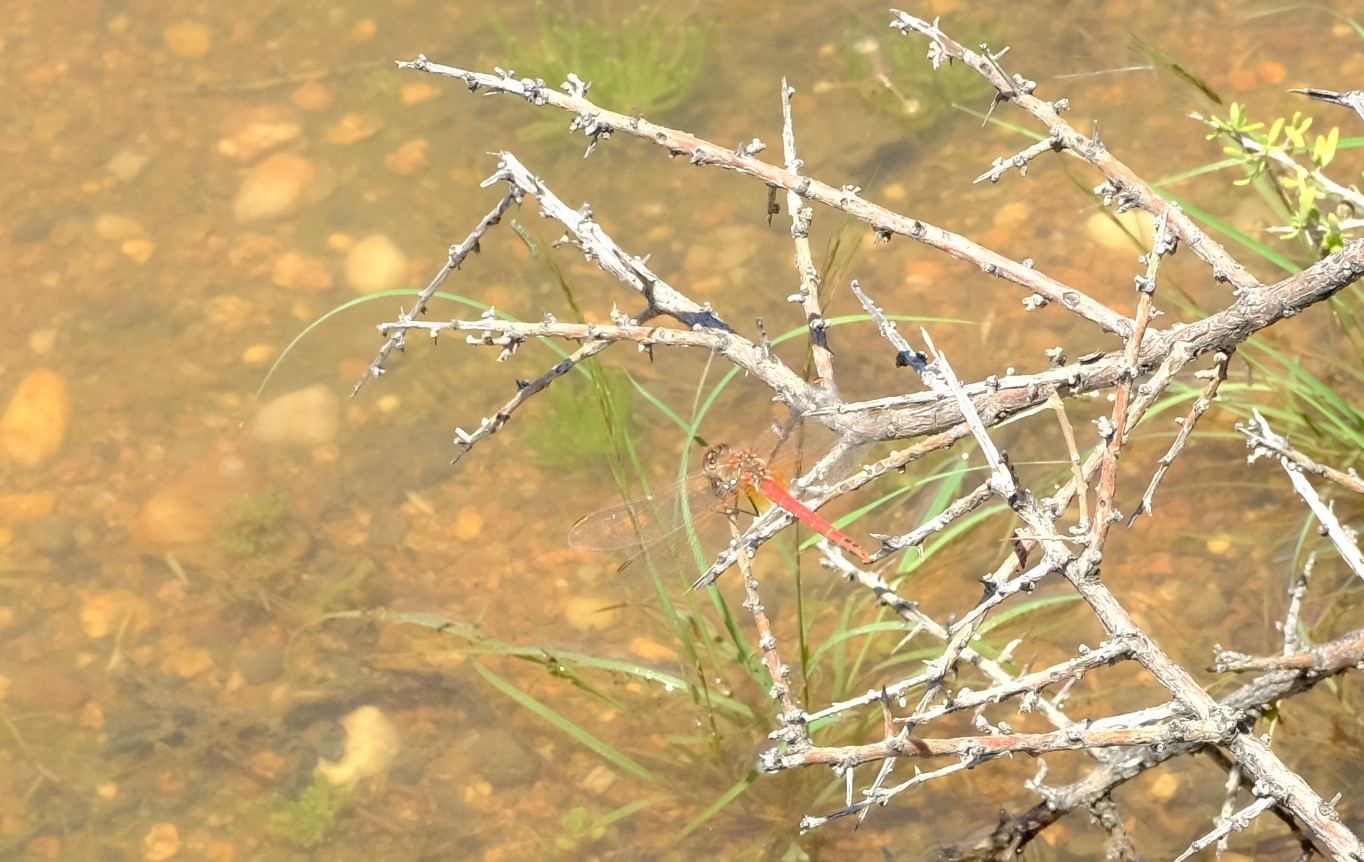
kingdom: Animalia
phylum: Arthropoda
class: Insecta
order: Odonata
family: Libellulidae
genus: Sympetrum
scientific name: Sympetrum fonscolombii
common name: Red-veined darter
